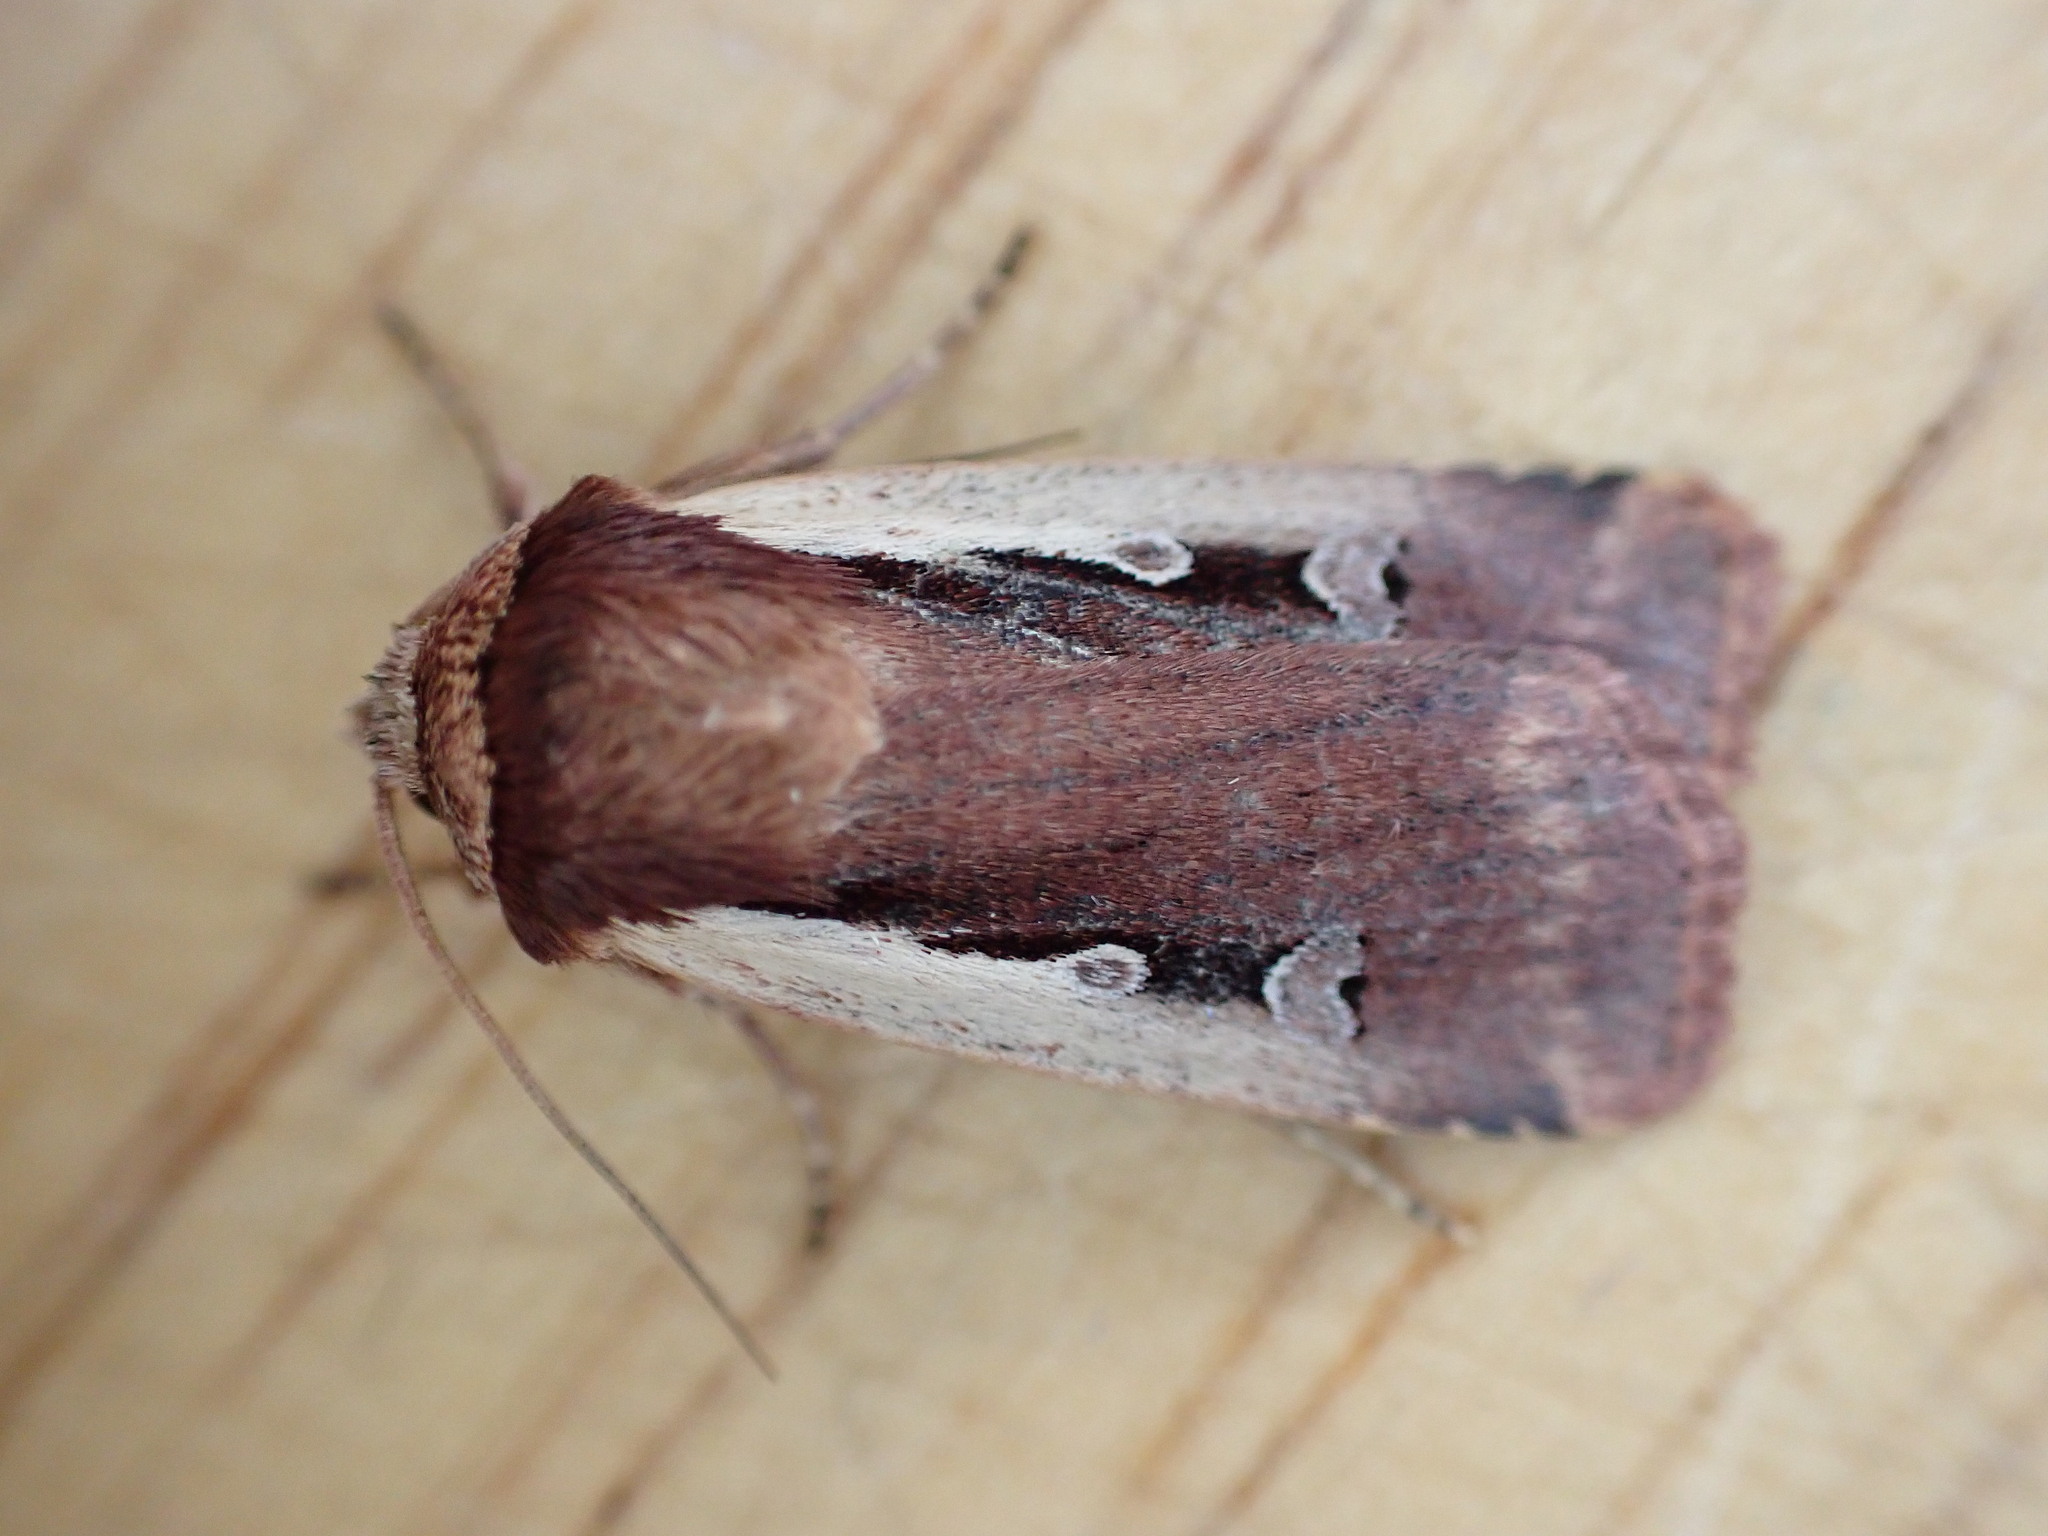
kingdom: Animalia
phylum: Arthropoda
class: Insecta
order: Lepidoptera
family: Noctuidae
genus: Ochropleura
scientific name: Ochropleura plecta
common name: Flame shoulder
